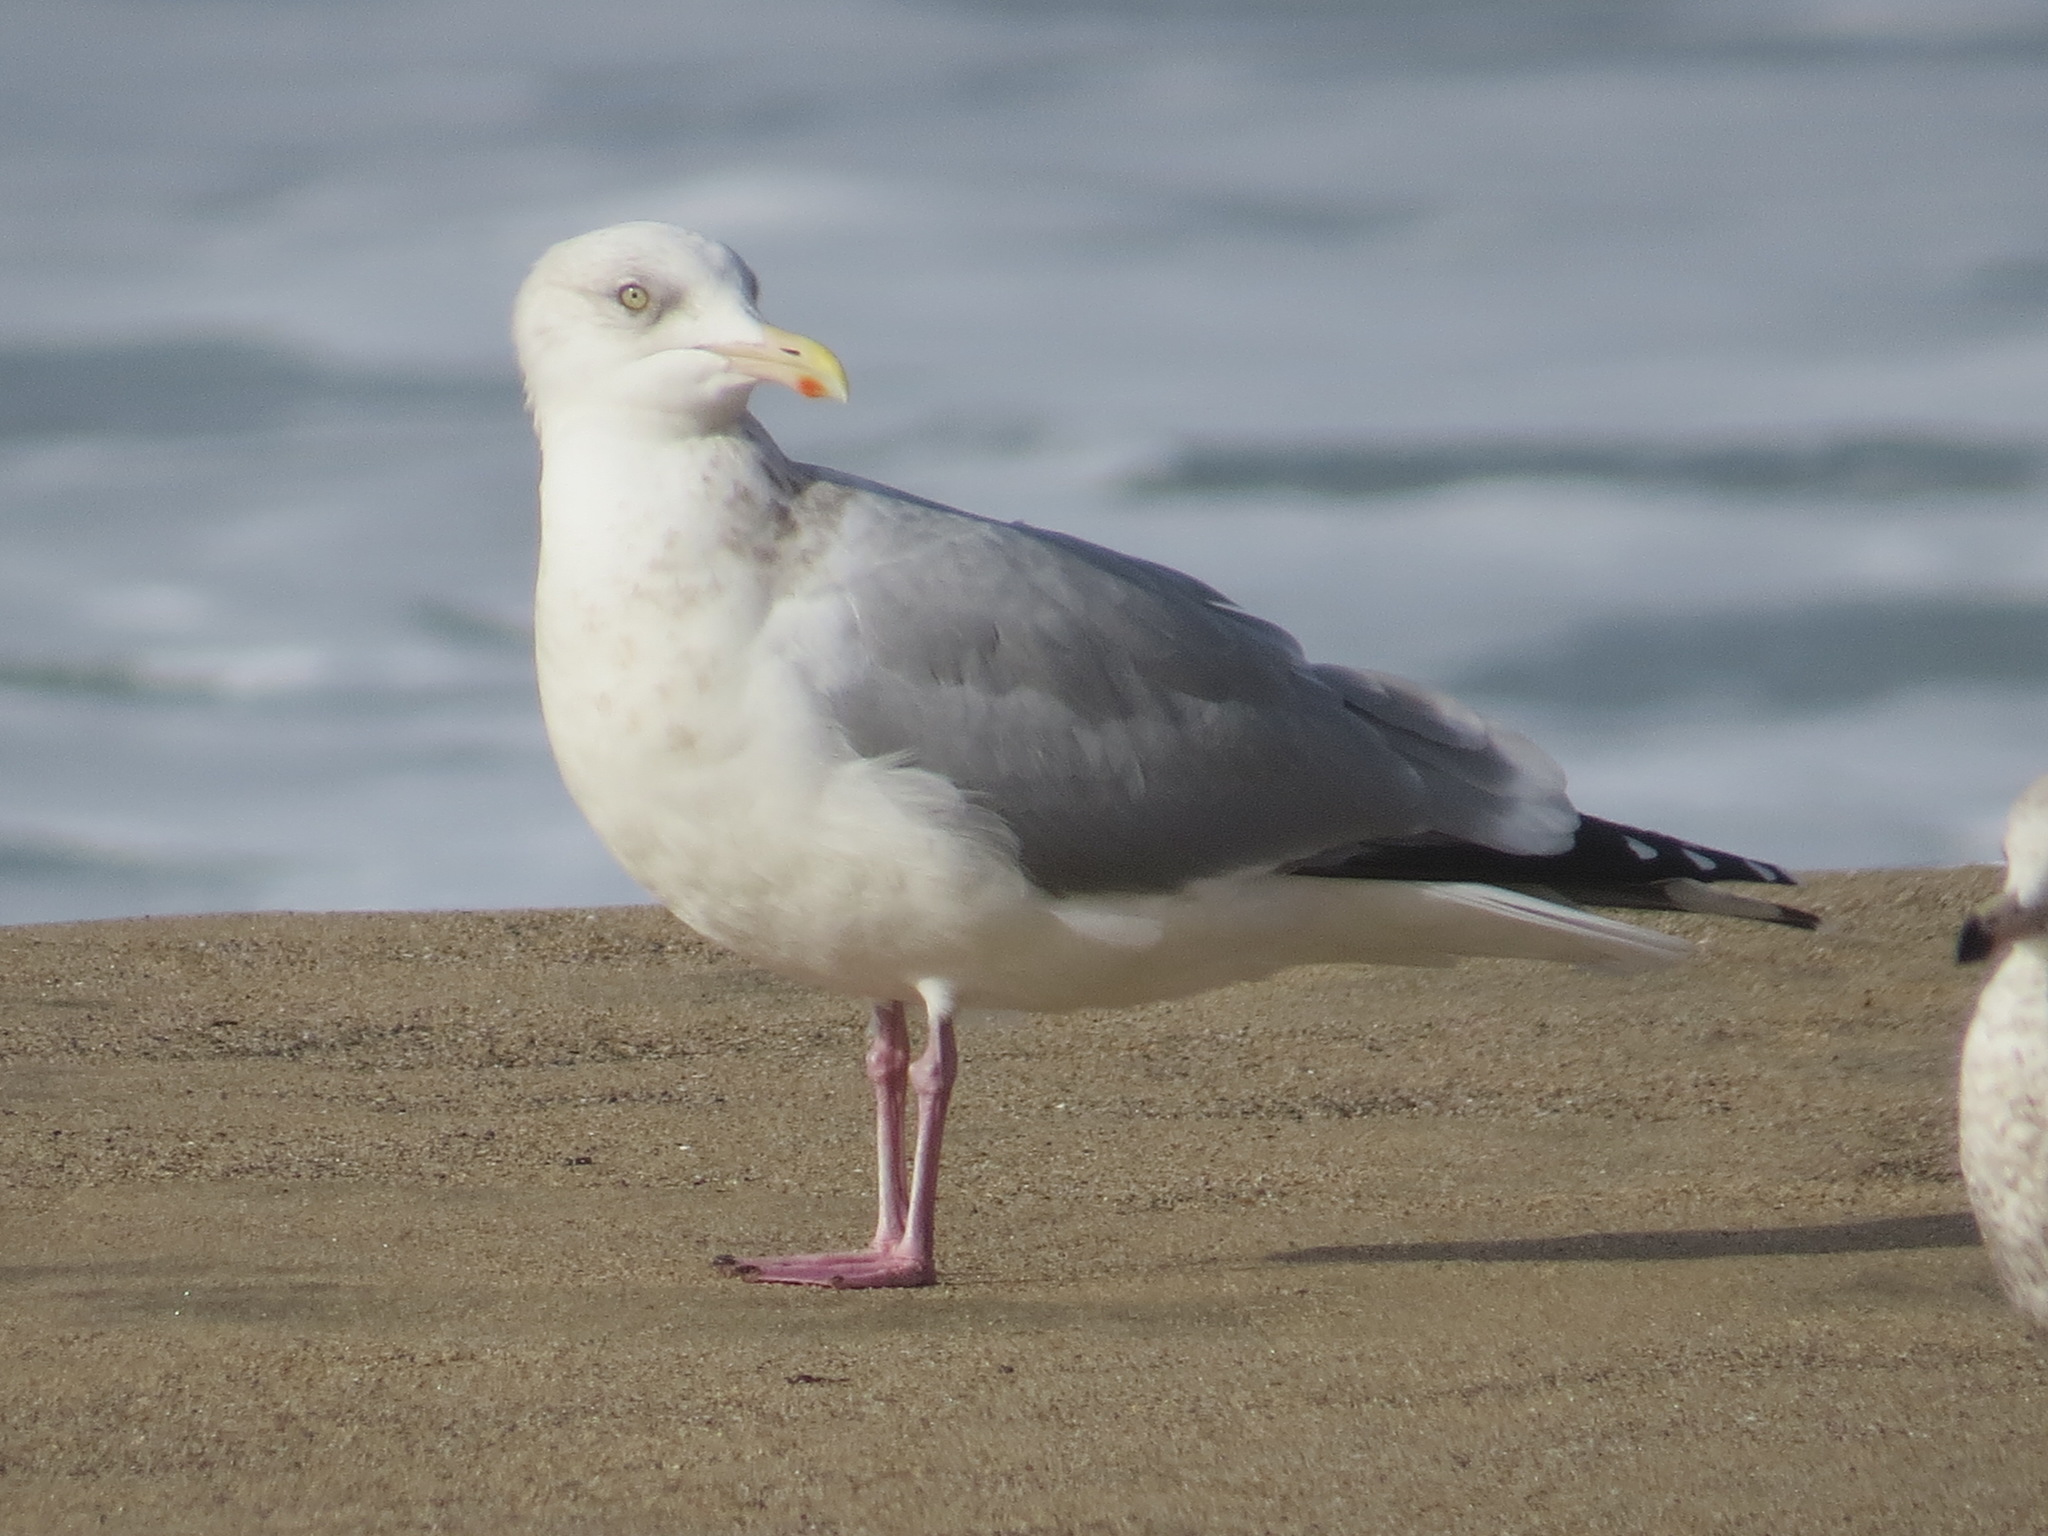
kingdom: Animalia
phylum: Chordata
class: Aves
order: Charadriiformes
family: Laridae
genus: Larus
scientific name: Larus argentatus
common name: Herring gull
